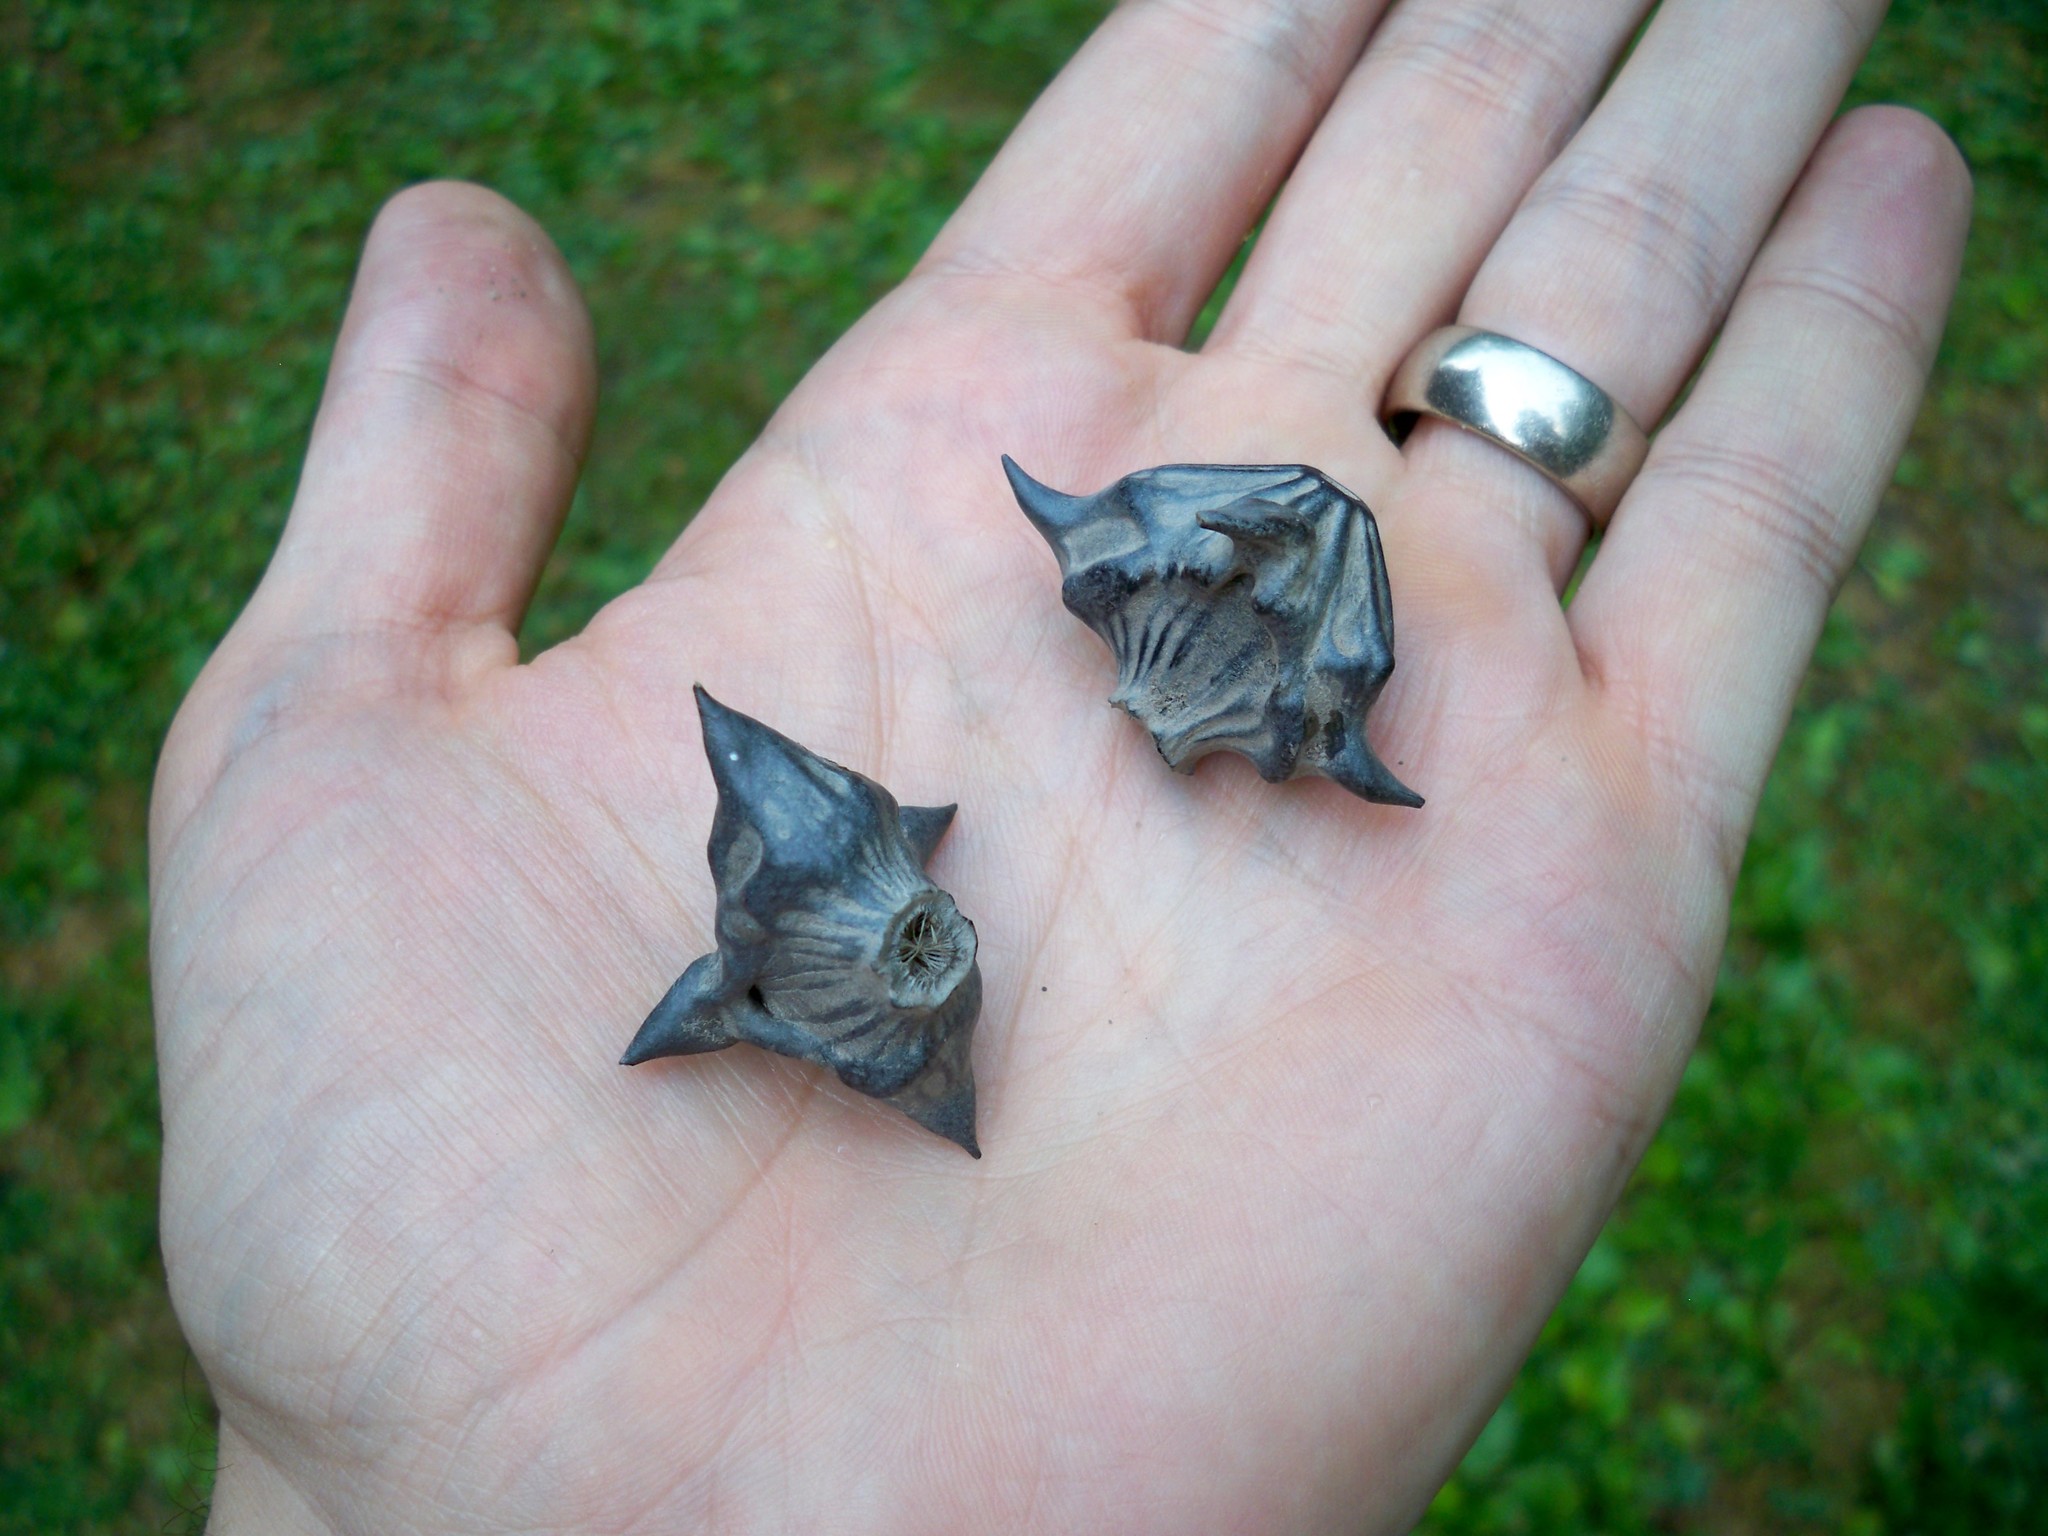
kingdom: Plantae
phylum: Tracheophyta
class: Magnoliopsida
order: Myrtales
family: Lythraceae
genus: Trapa
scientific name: Trapa natans
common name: Water chestnut
